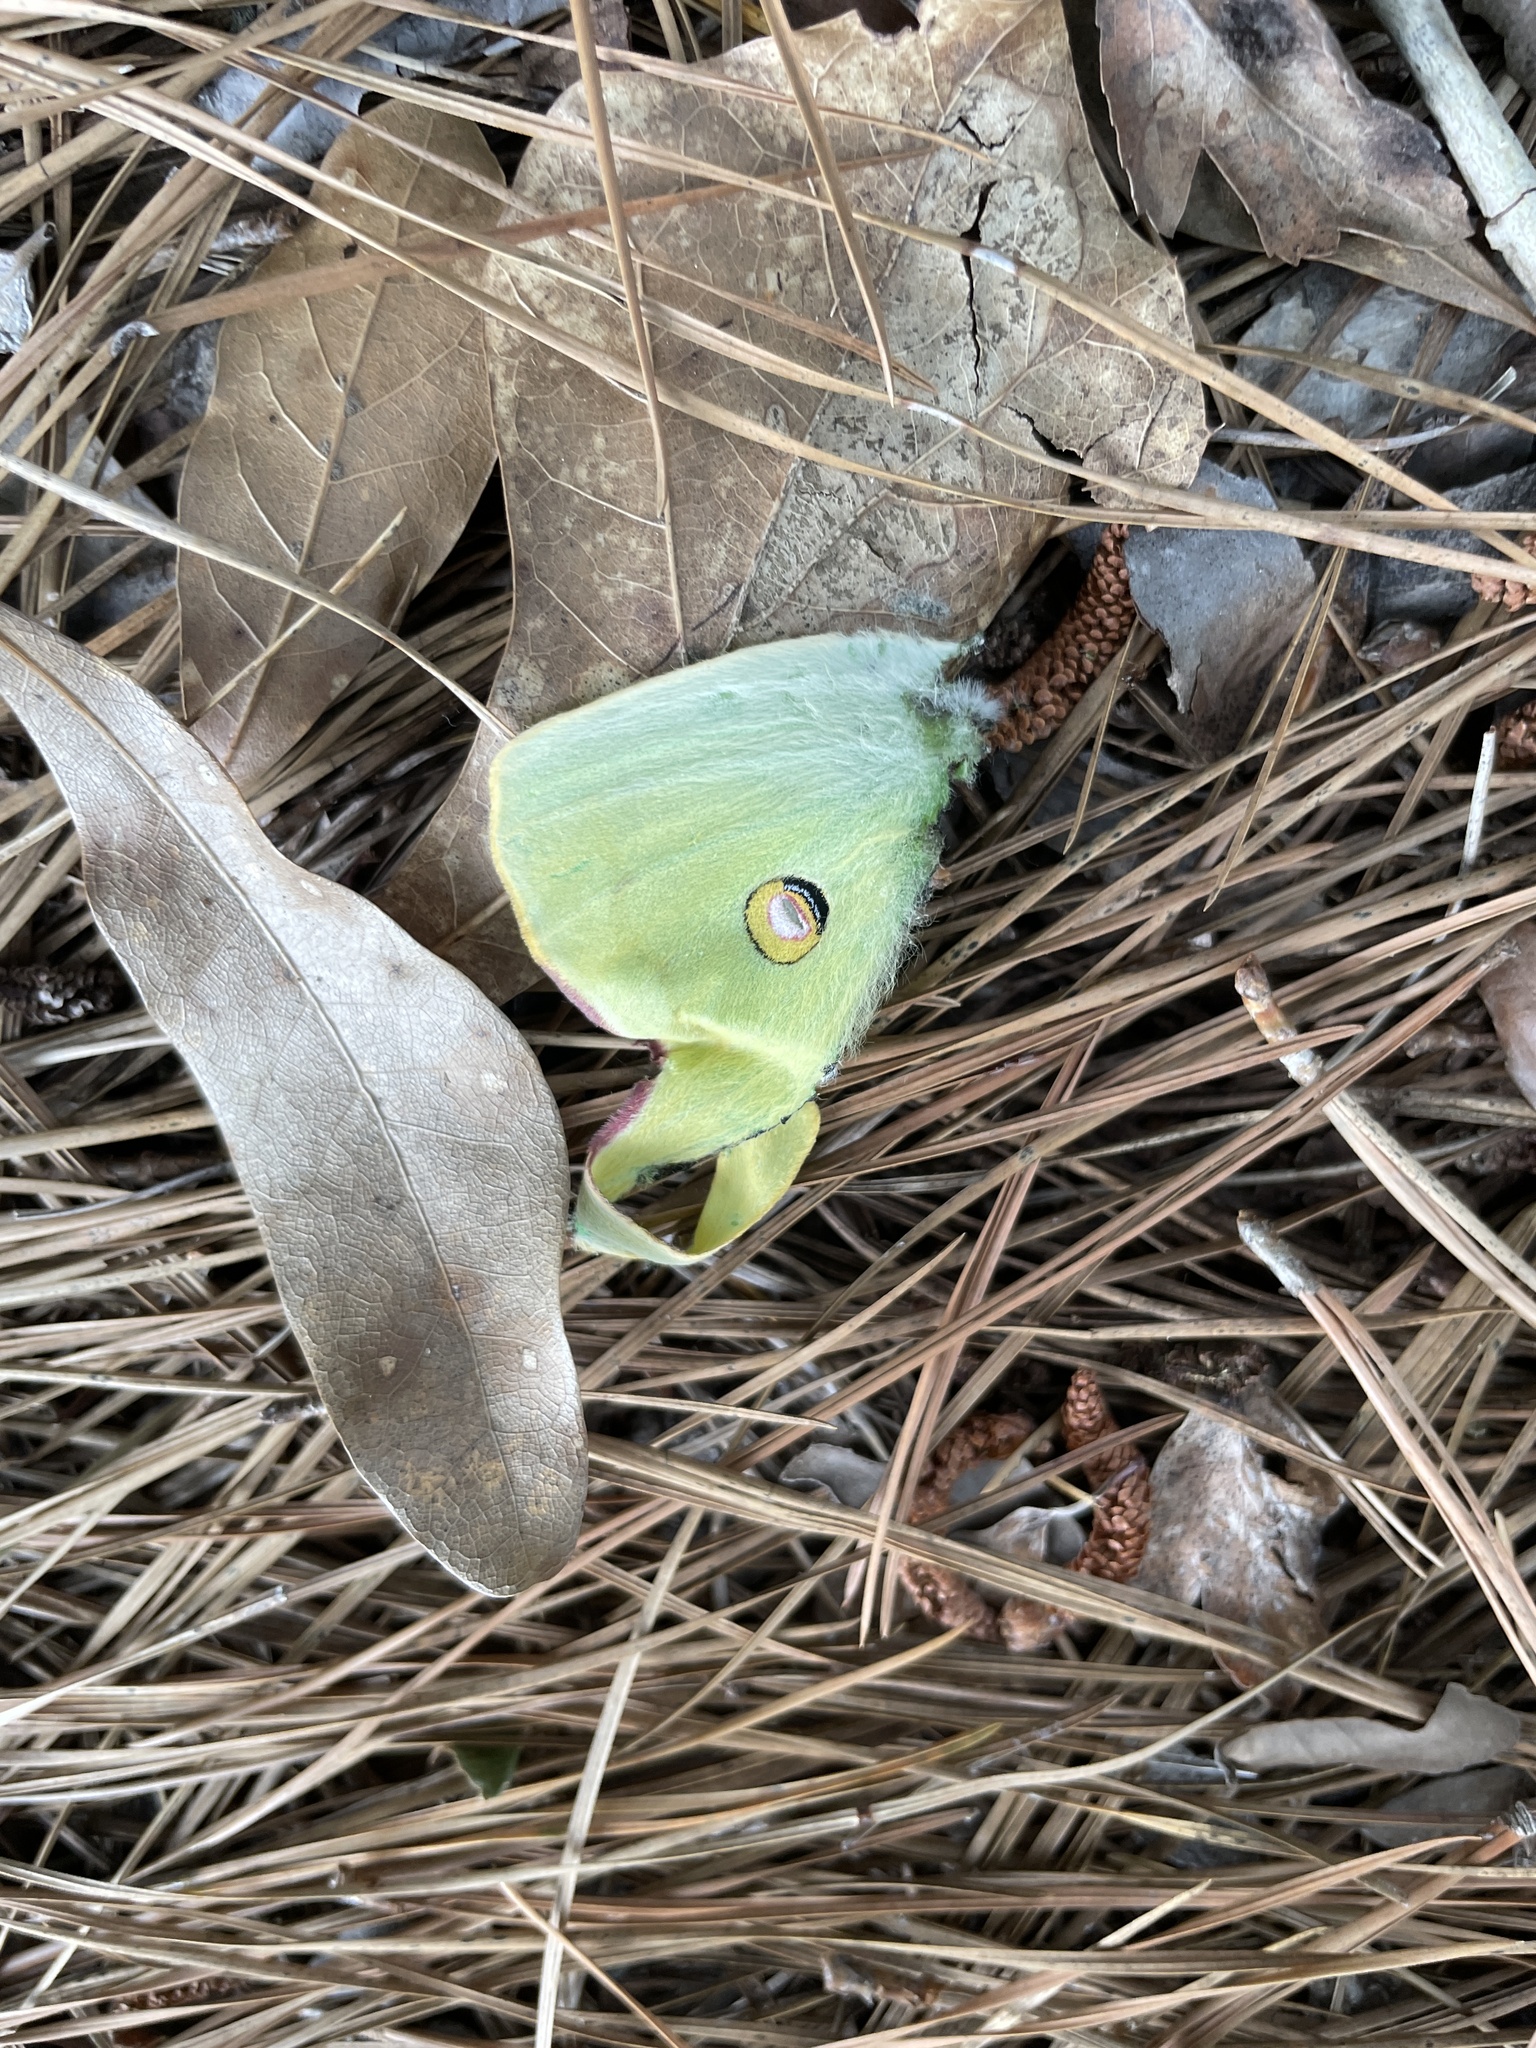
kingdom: Animalia
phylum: Arthropoda
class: Insecta
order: Lepidoptera
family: Saturniidae
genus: Actias
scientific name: Actias luna
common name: Luna moth
